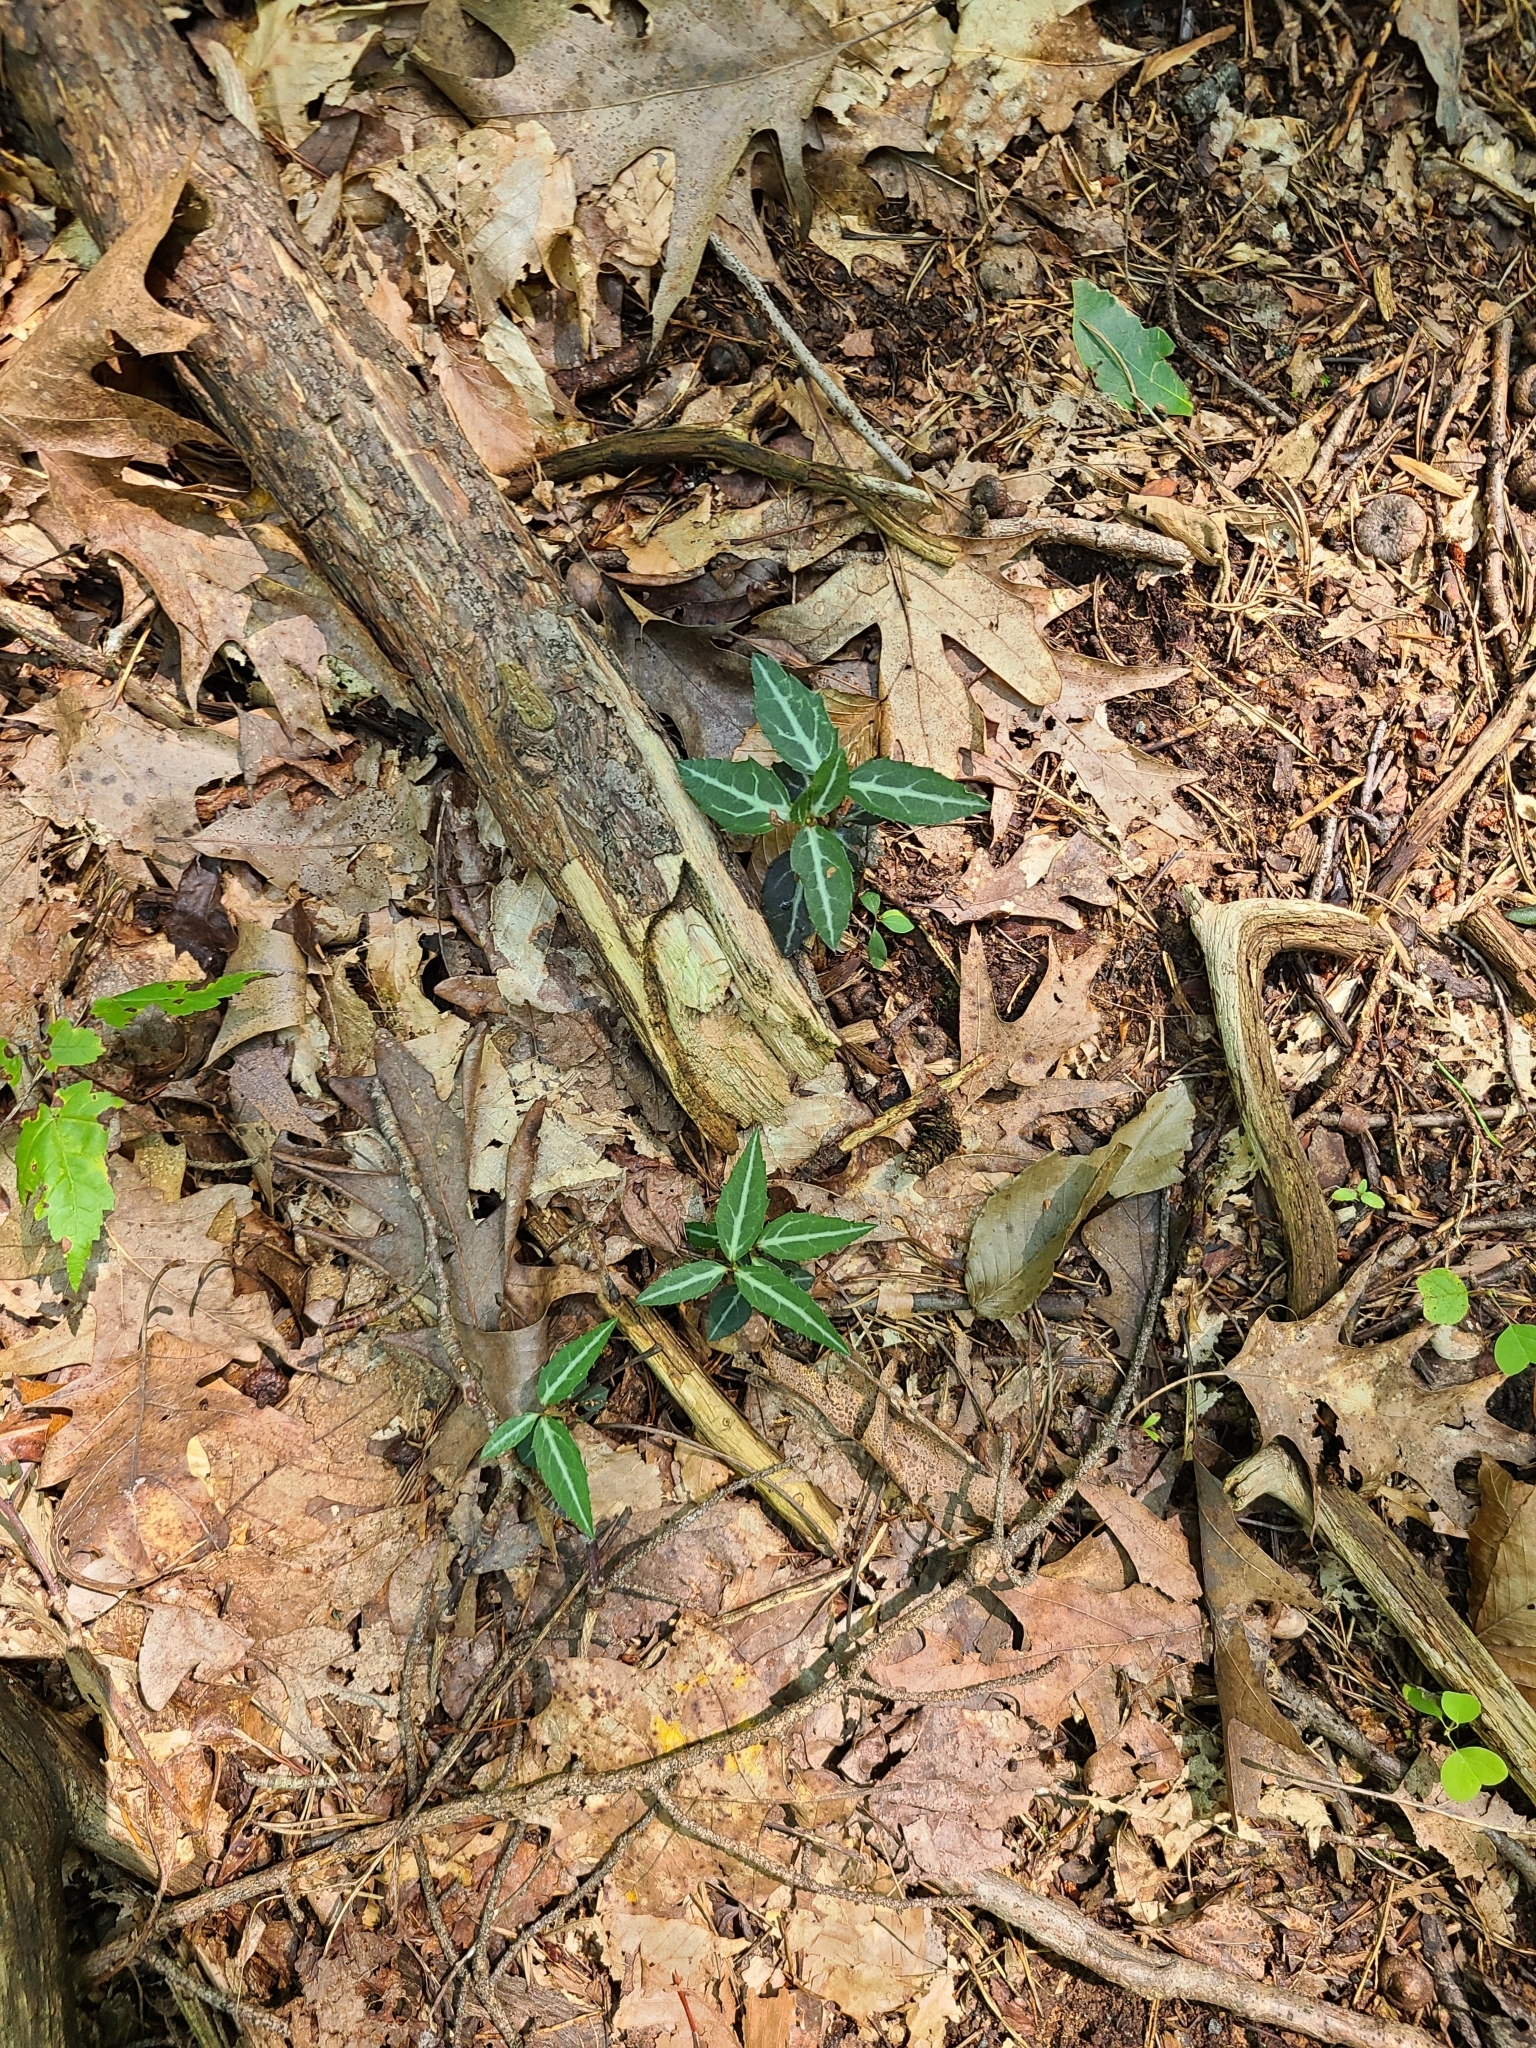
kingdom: Plantae
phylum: Tracheophyta
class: Magnoliopsida
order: Ericales
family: Ericaceae
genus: Chimaphila
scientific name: Chimaphila maculata
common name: Spotted pipsissewa
